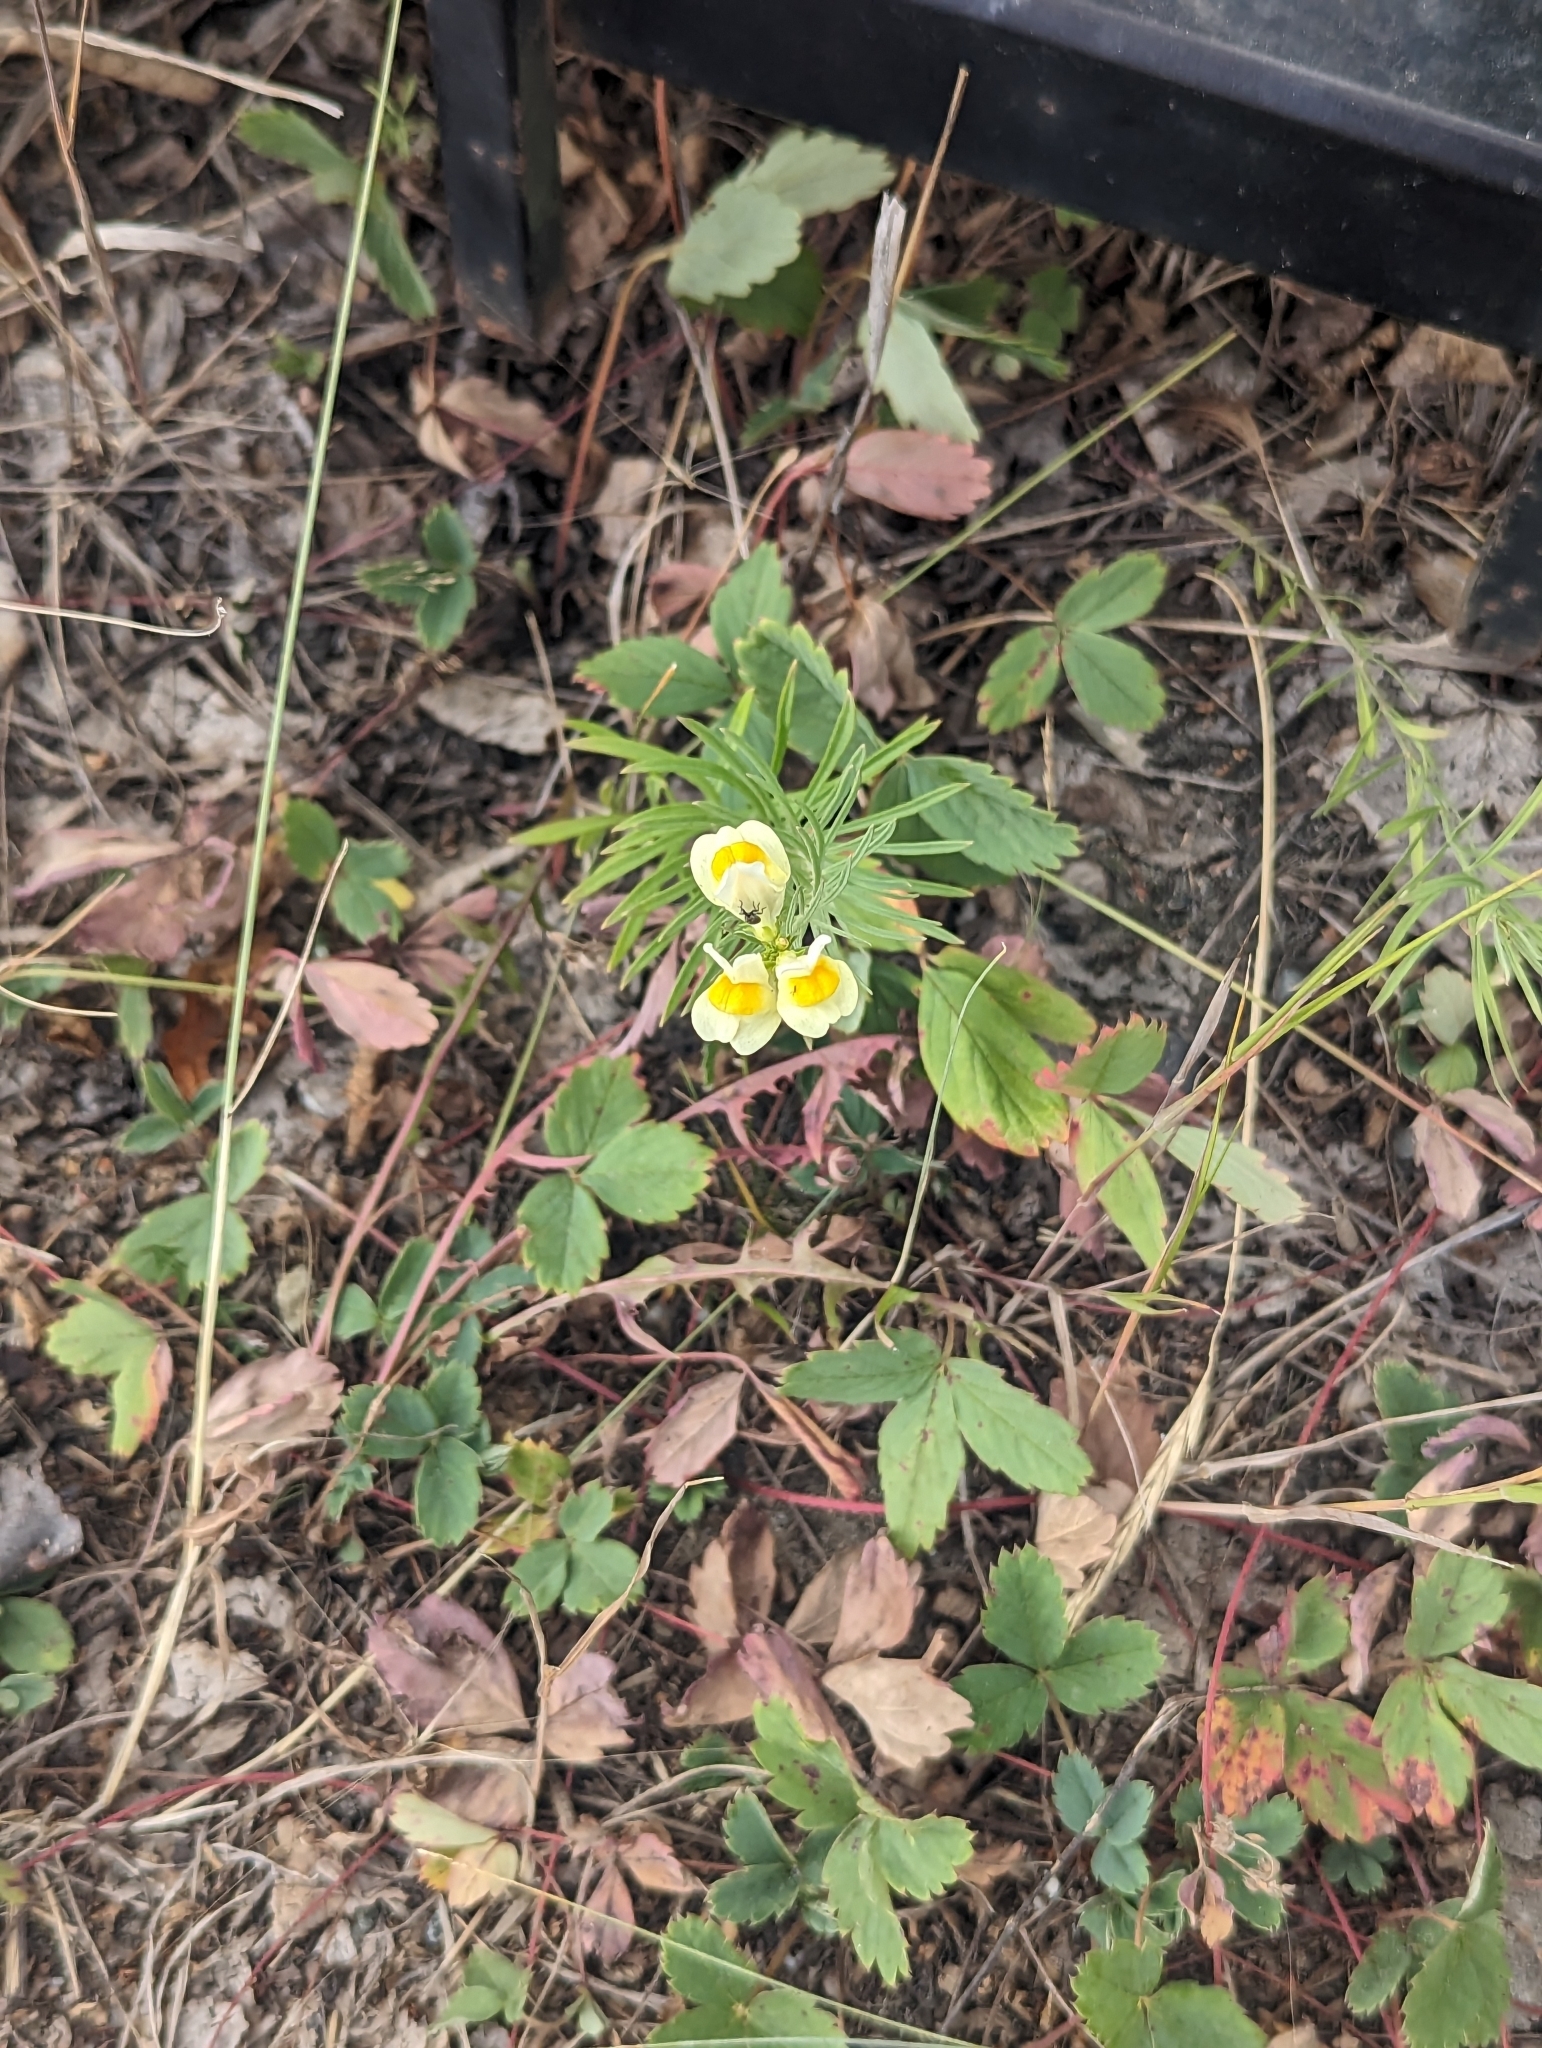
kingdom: Plantae
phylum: Tracheophyta
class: Magnoliopsida
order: Lamiales
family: Plantaginaceae
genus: Linaria
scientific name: Linaria vulgaris
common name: Butter and eggs
